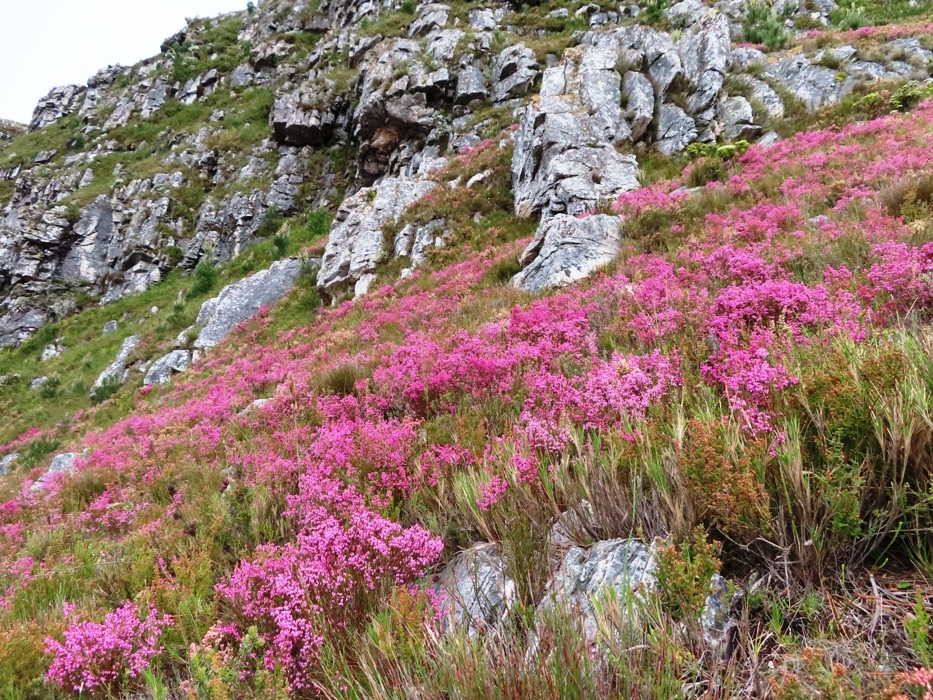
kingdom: Plantae
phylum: Tracheophyta
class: Magnoliopsida
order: Ericales
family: Ericaceae
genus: Erica
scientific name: Erica tenuifolia
